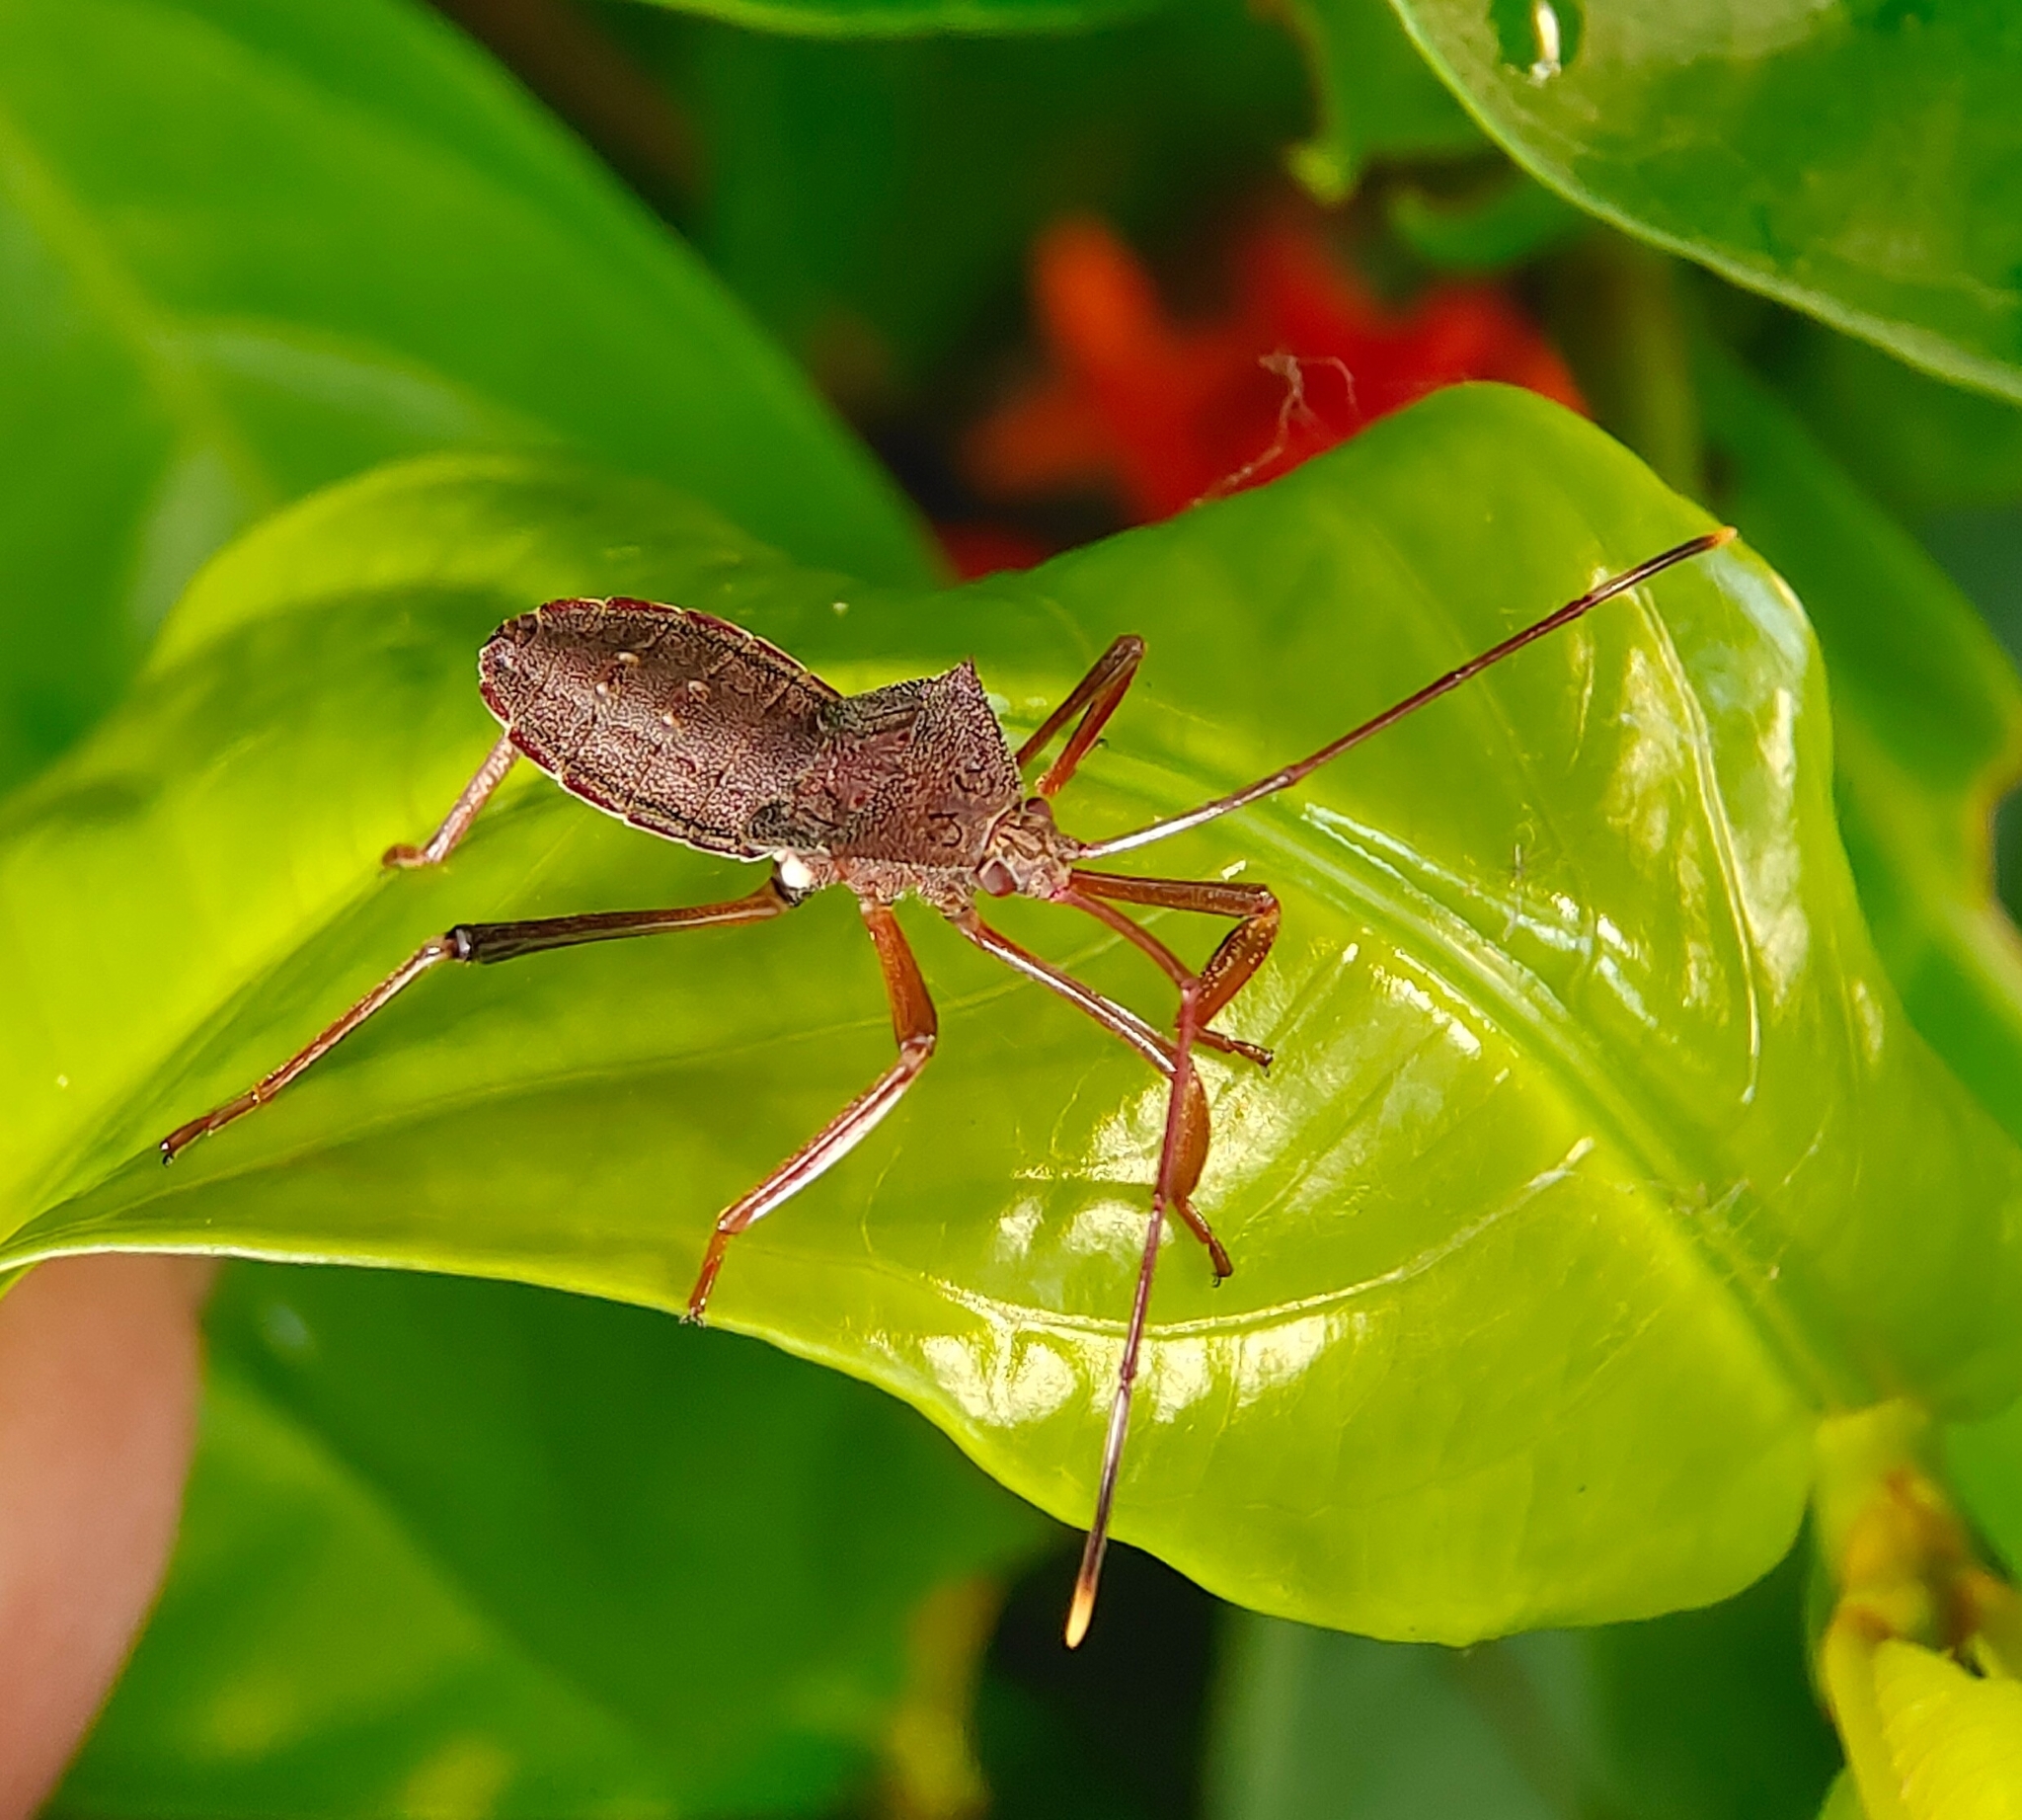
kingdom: Animalia
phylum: Arthropoda
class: Insecta
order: Hemiptera
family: Coreidae
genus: Mictis
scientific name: Mictis longicornis
